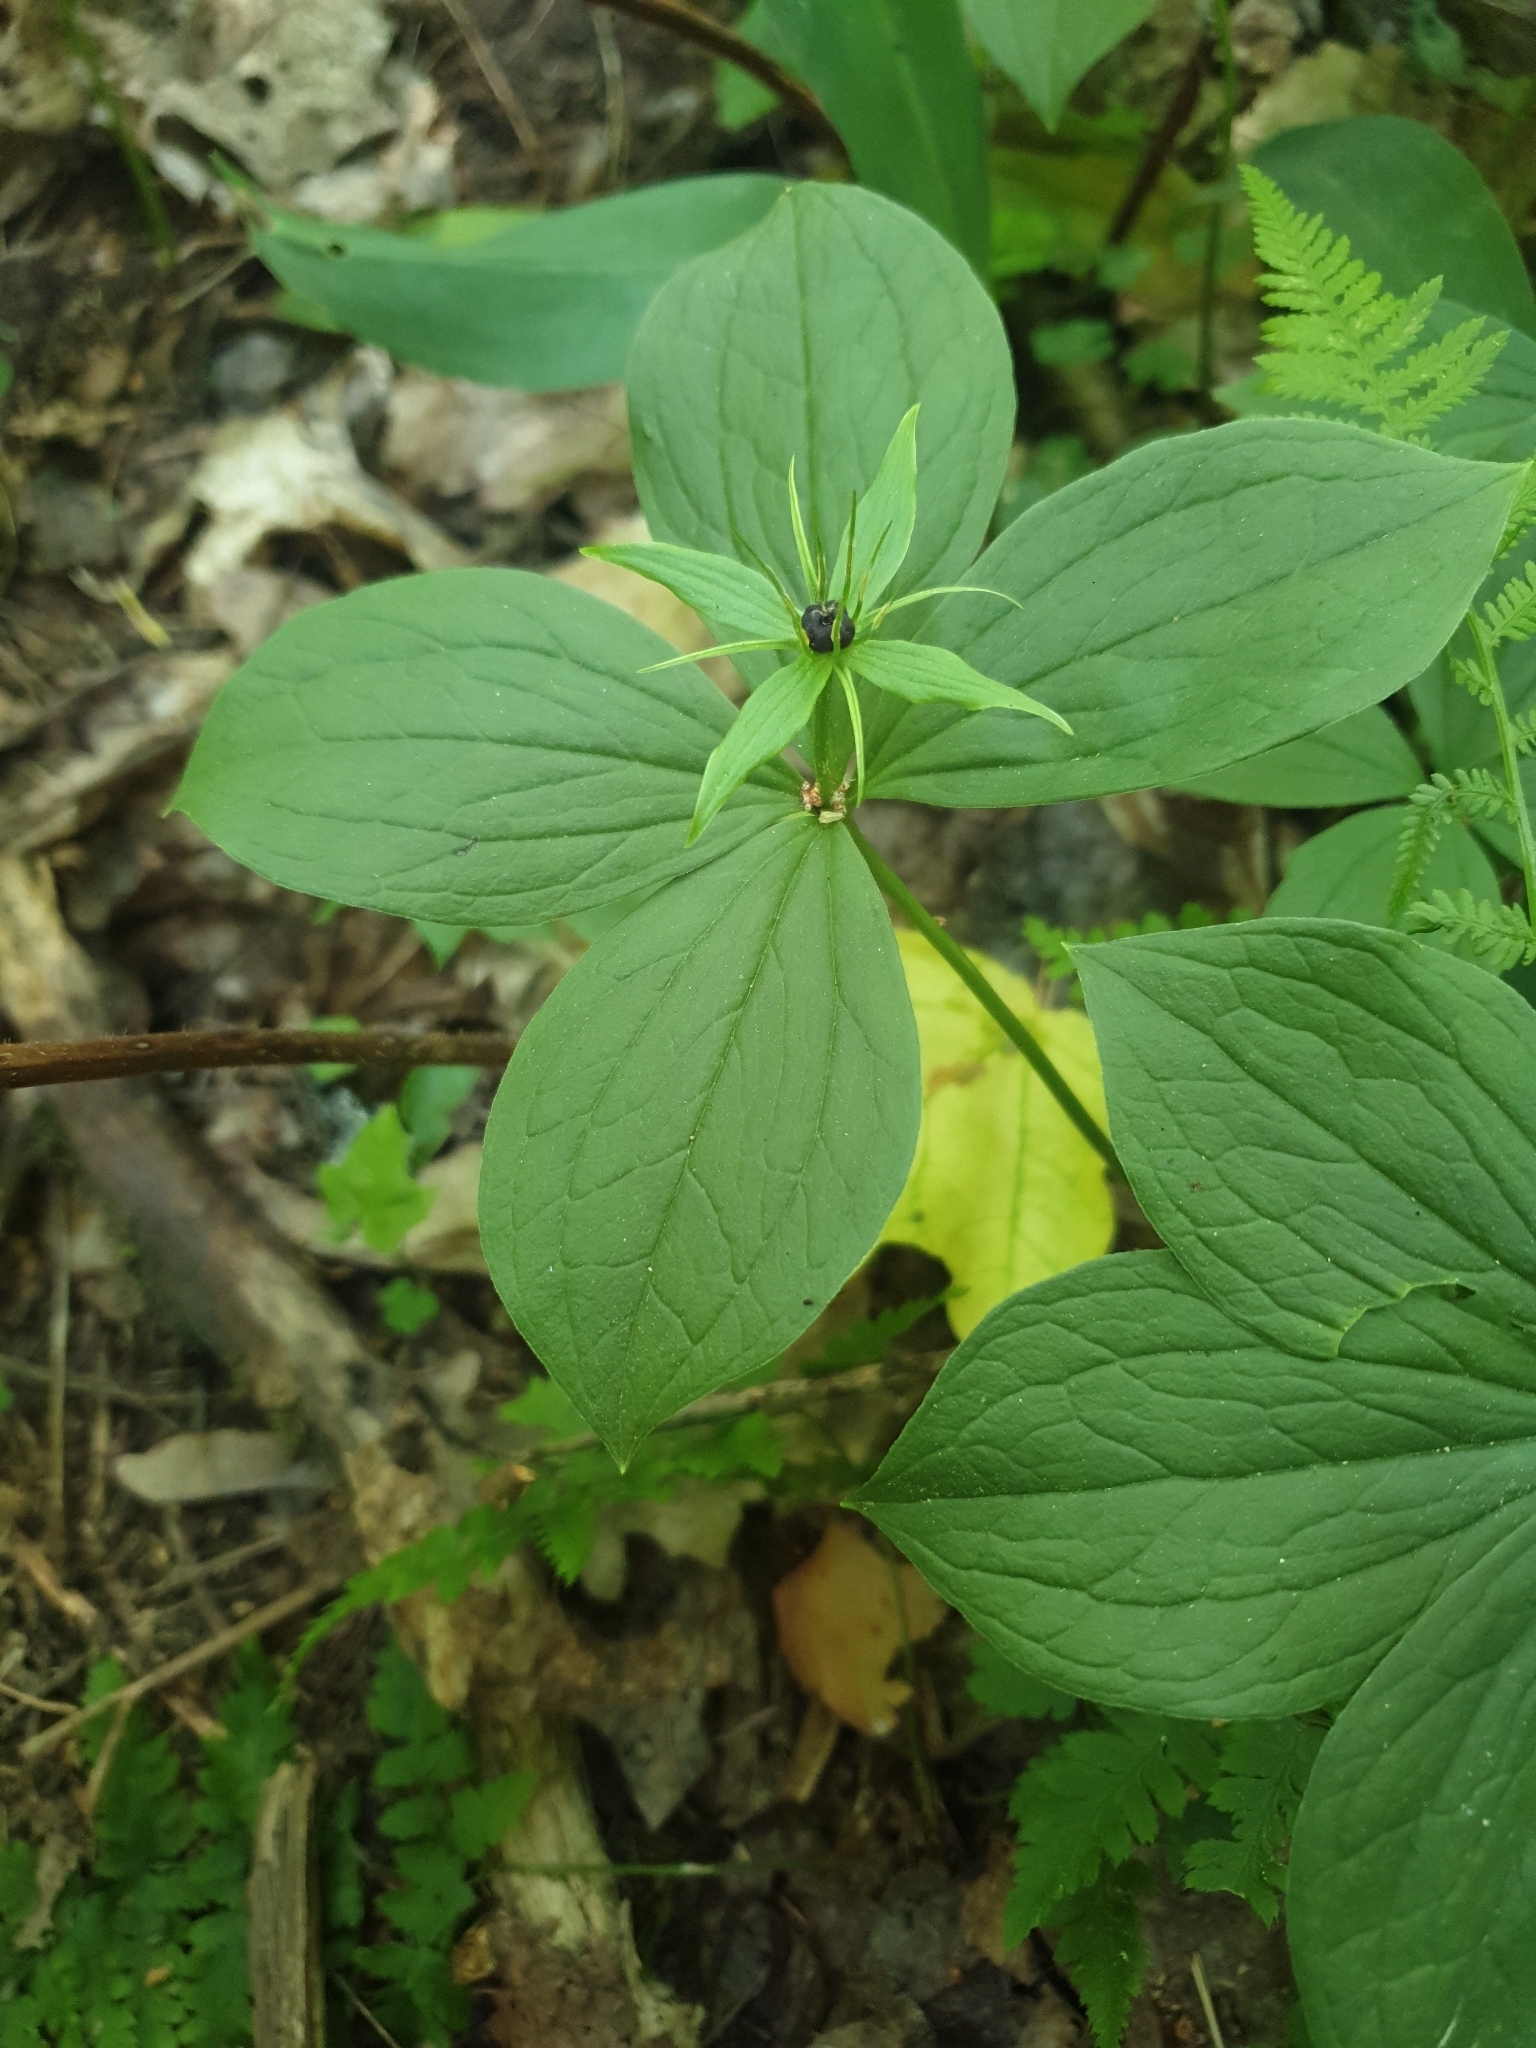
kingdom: Plantae
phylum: Tracheophyta
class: Liliopsida
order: Liliales
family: Melanthiaceae
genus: Paris
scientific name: Paris quadrifolia
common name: Herb-paris
